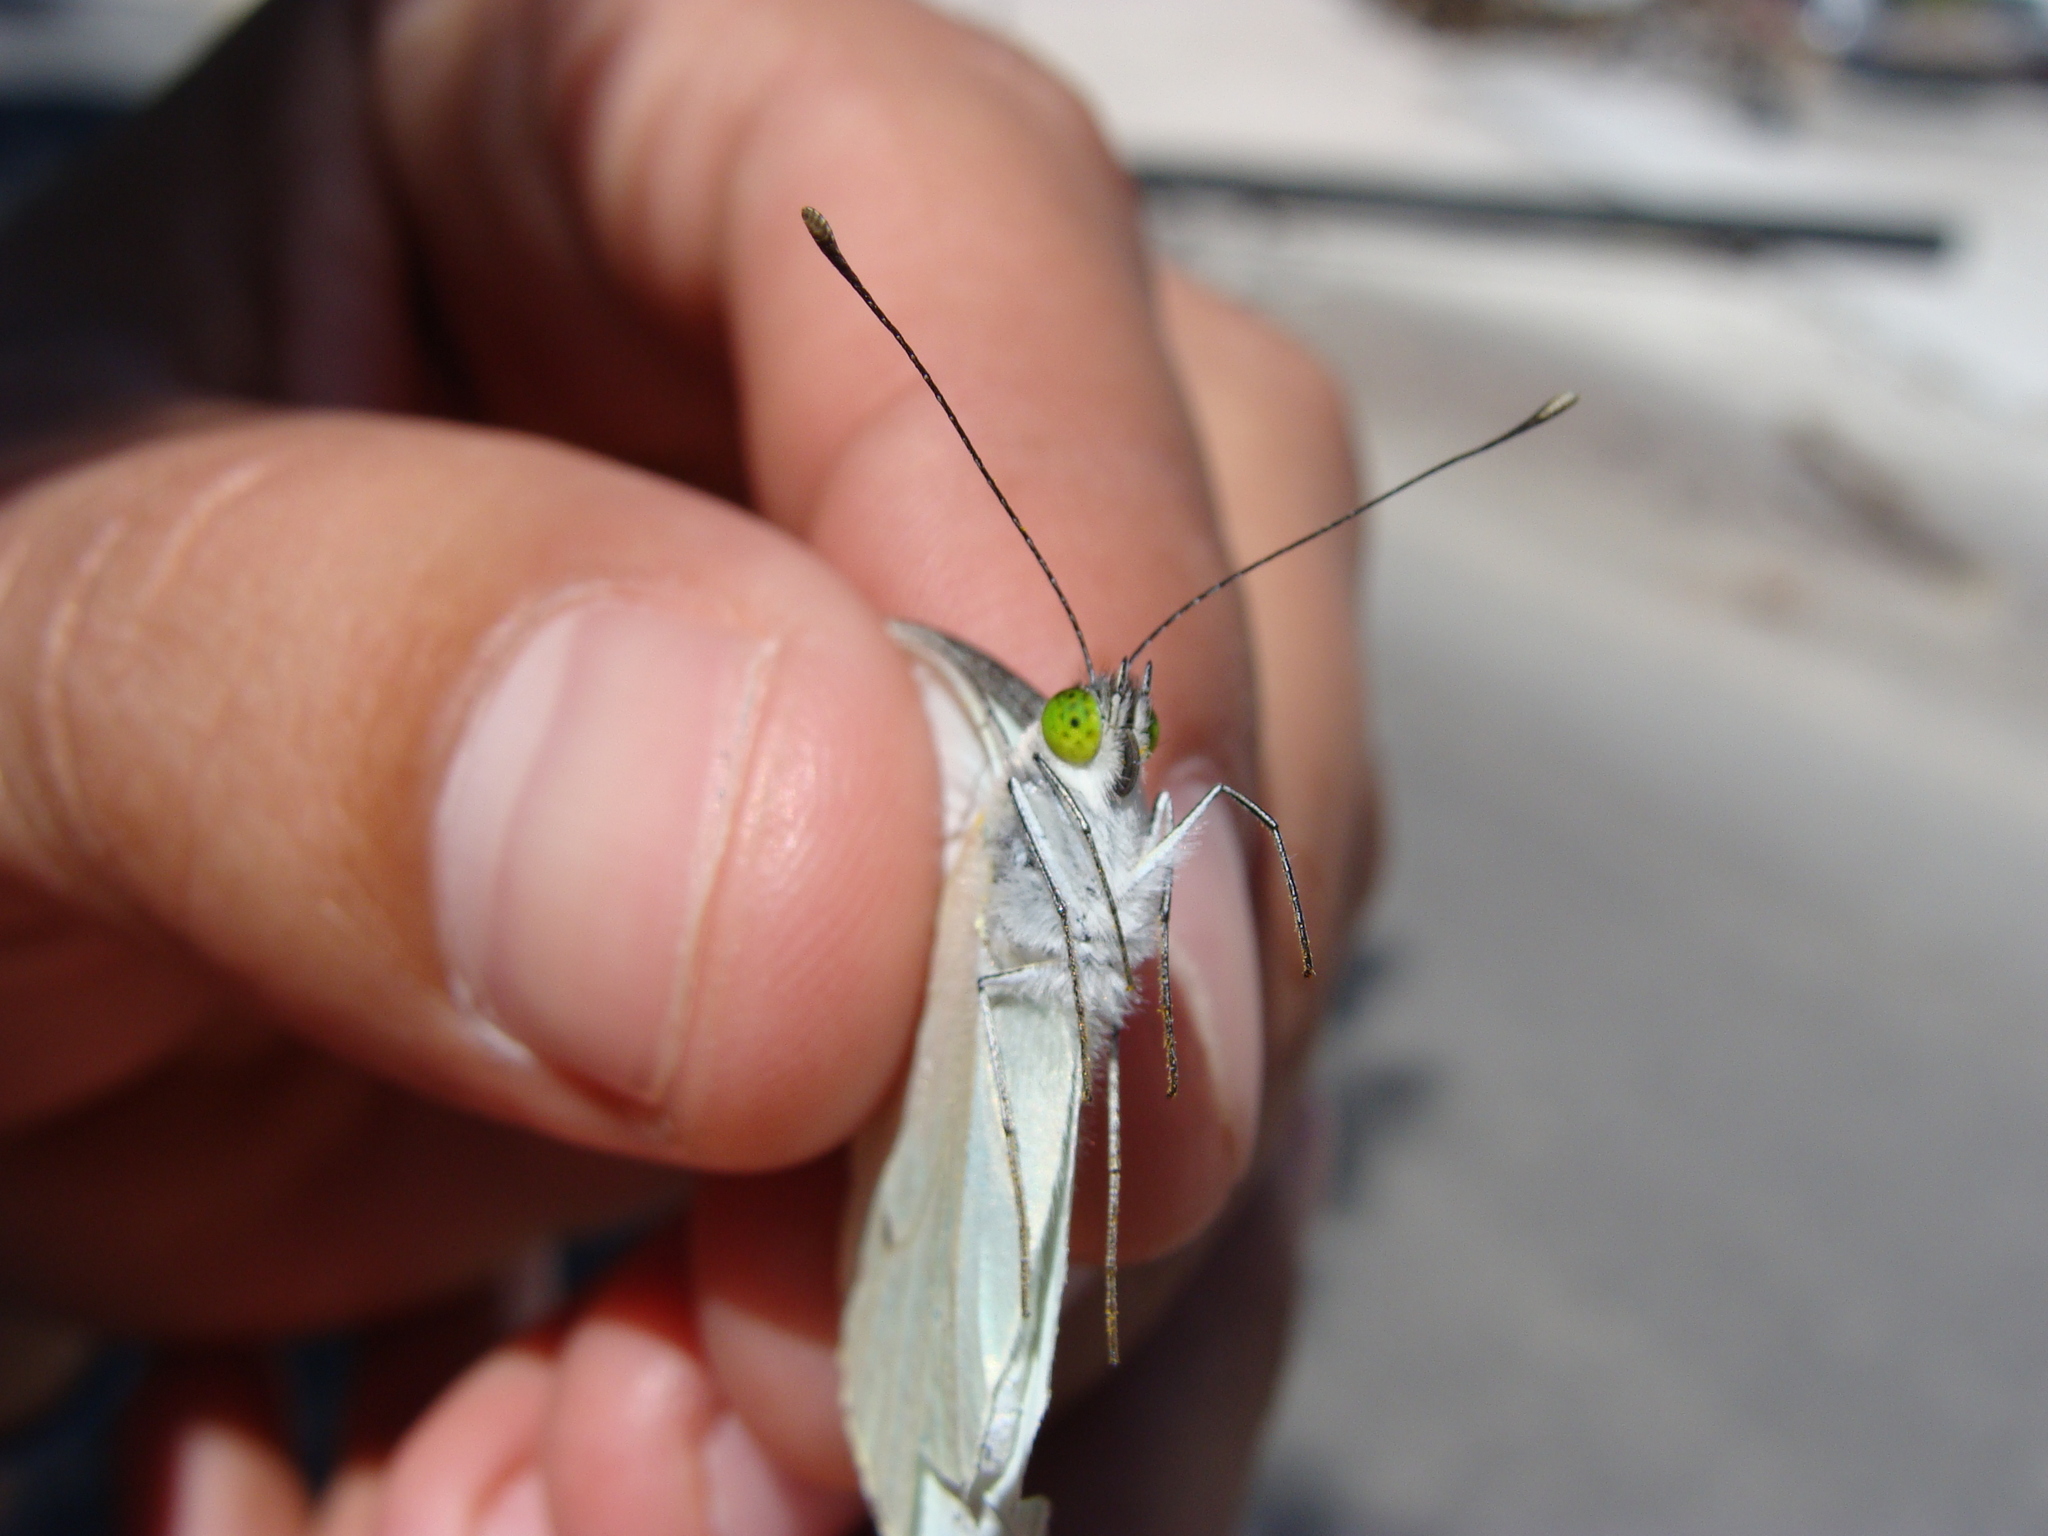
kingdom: Animalia
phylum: Arthropoda
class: Insecta
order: Lepidoptera
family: Pieridae
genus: Leptophobia
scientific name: Leptophobia aripa
